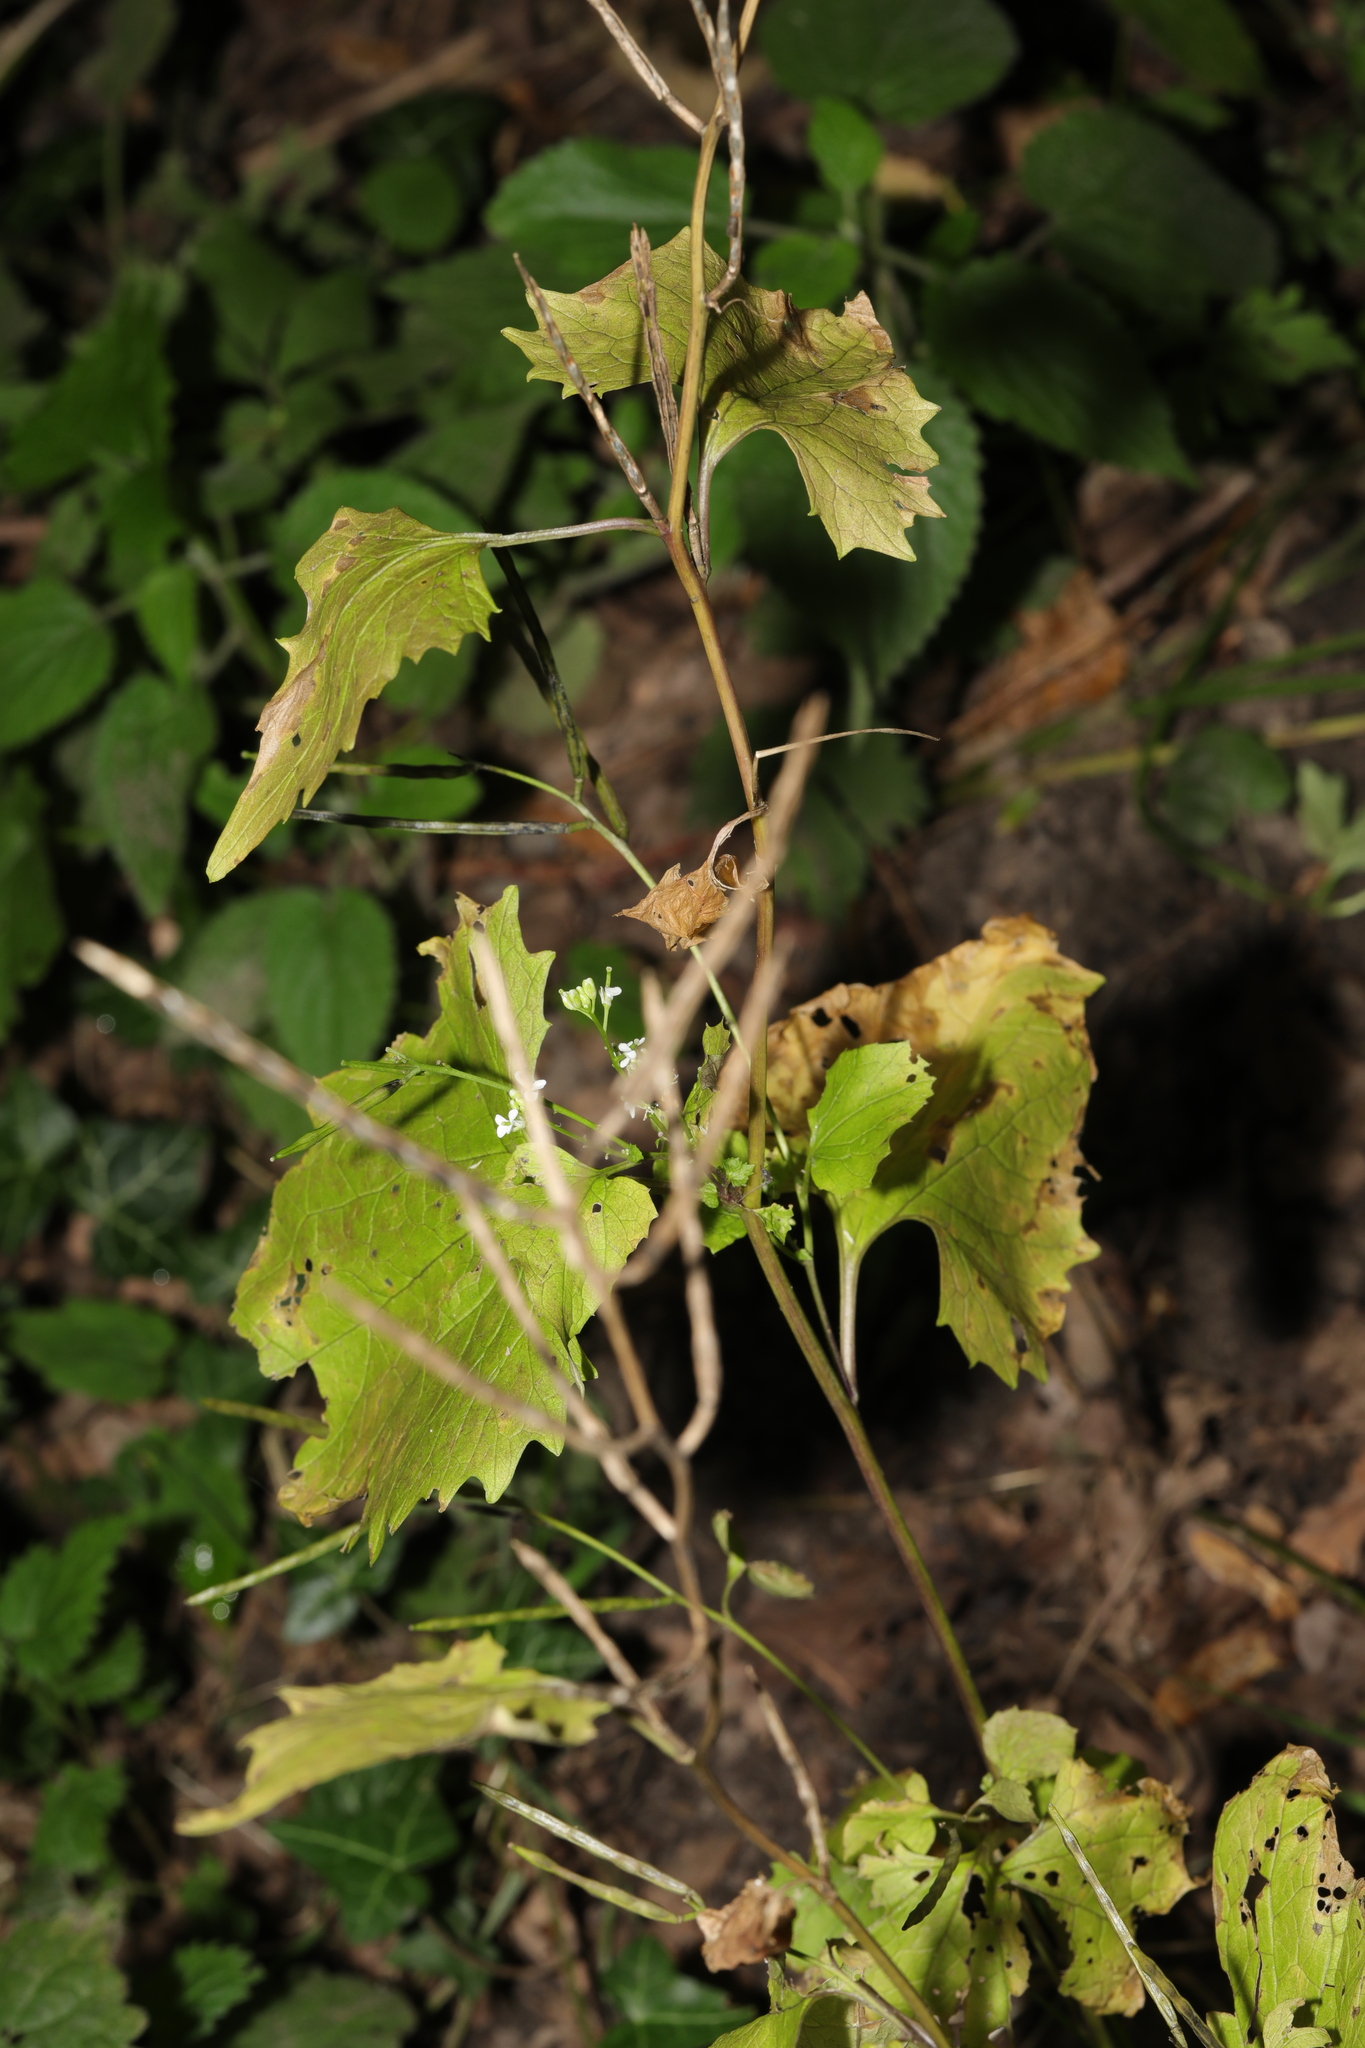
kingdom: Plantae
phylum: Tracheophyta
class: Magnoliopsida
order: Brassicales
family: Brassicaceae
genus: Alliaria
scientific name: Alliaria petiolata
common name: Garlic mustard
